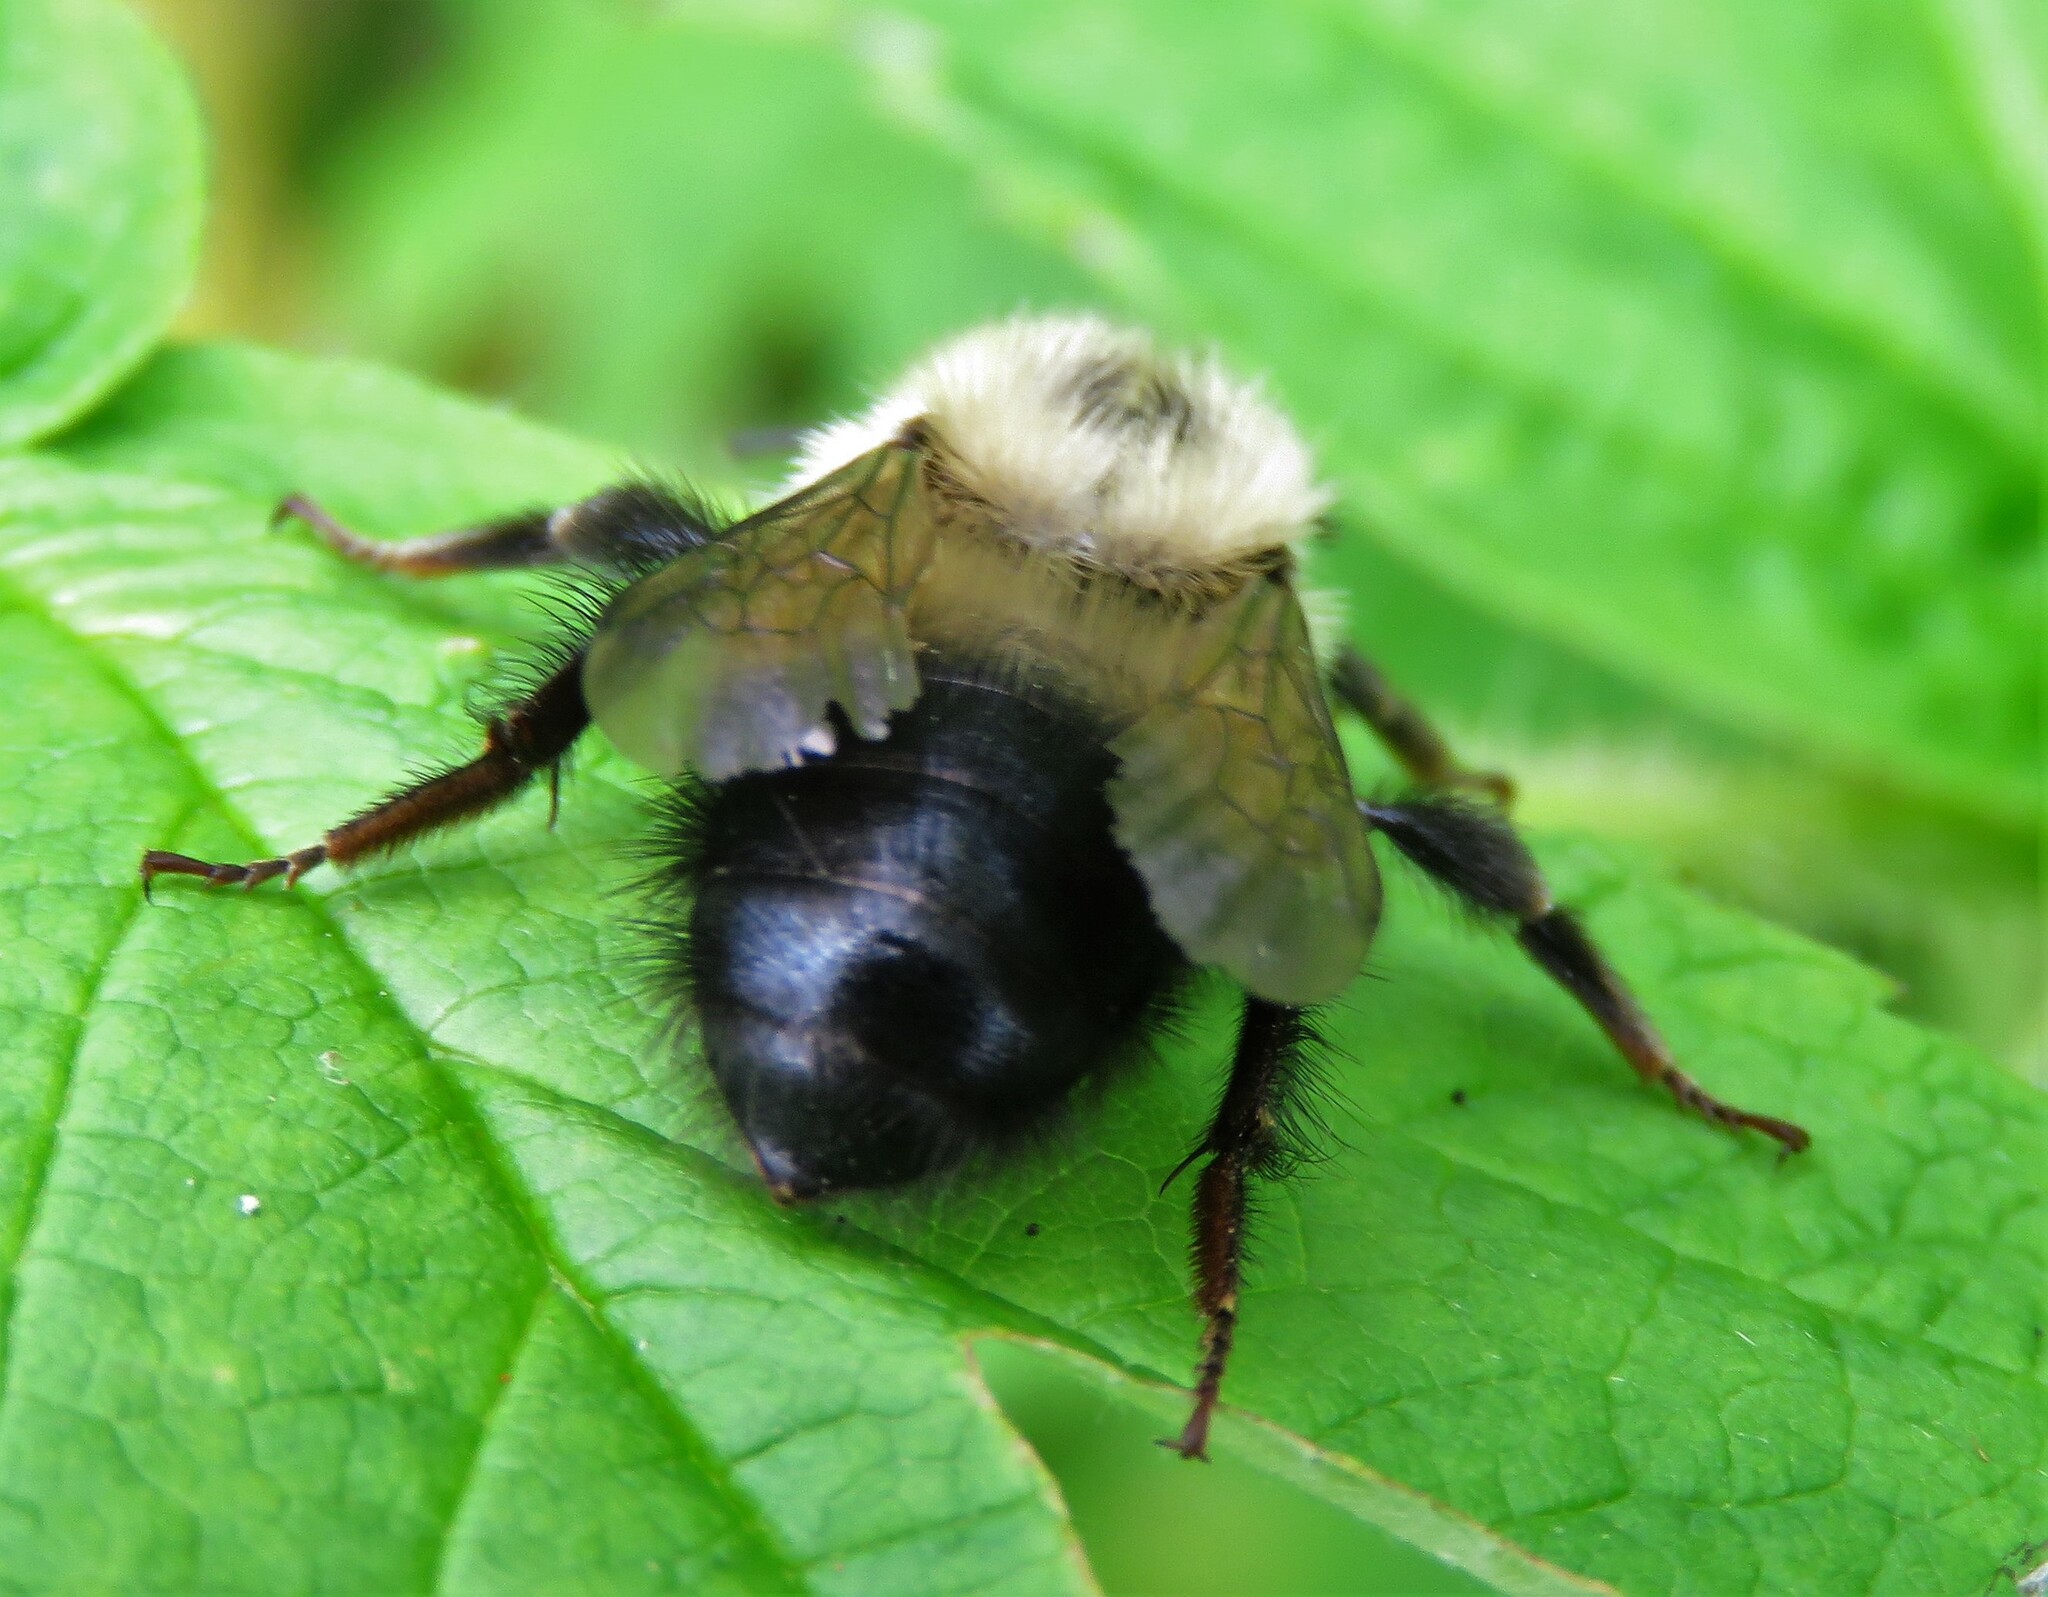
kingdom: Animalia
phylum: Arthropoda
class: Insecta
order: Hymenoptera
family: Apidae
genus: Bombus
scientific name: Bombus vagans
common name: Half-black bumble bee
